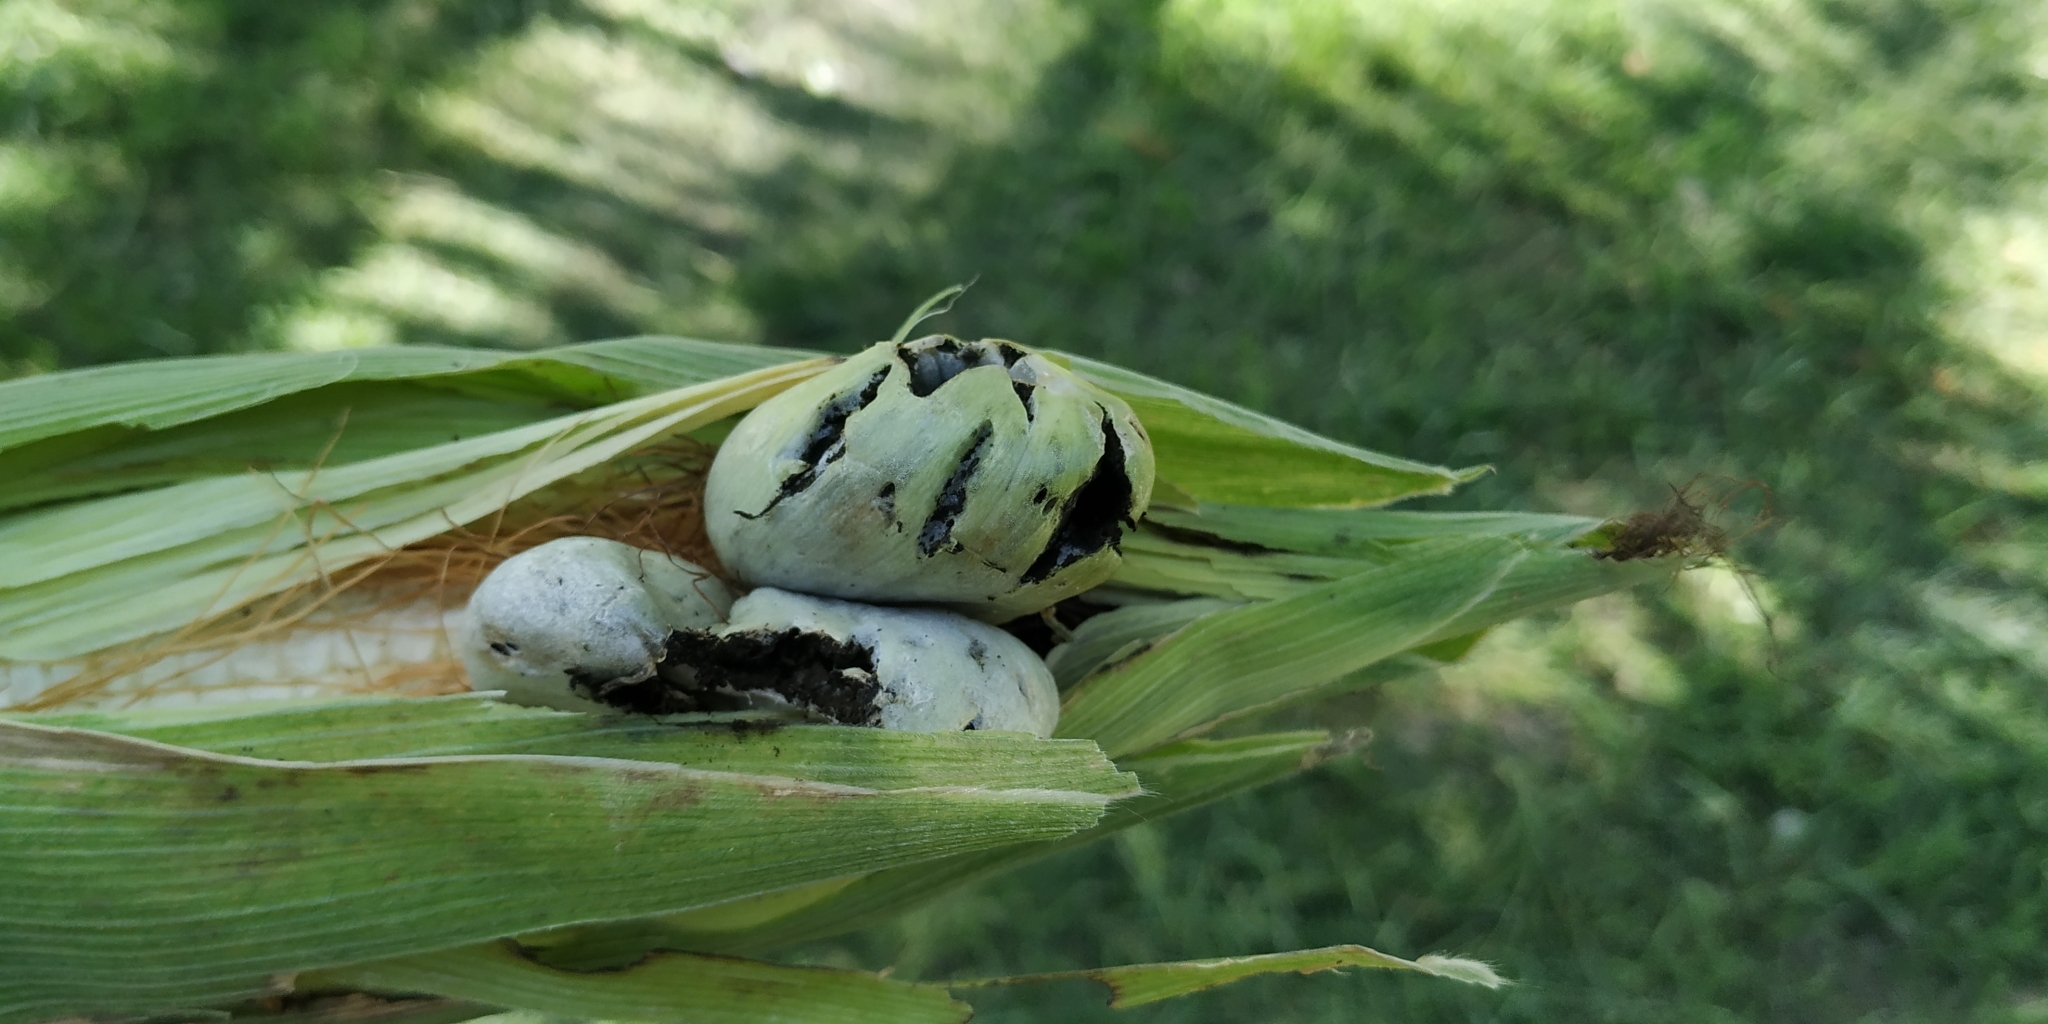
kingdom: Fungi
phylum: Basidiomycota
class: Ustilaginomycetes
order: Ustilaginales
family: Ustilaginaceae
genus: Mycosarcoma
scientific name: Mycosarcoma maydis
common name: Corn smut
